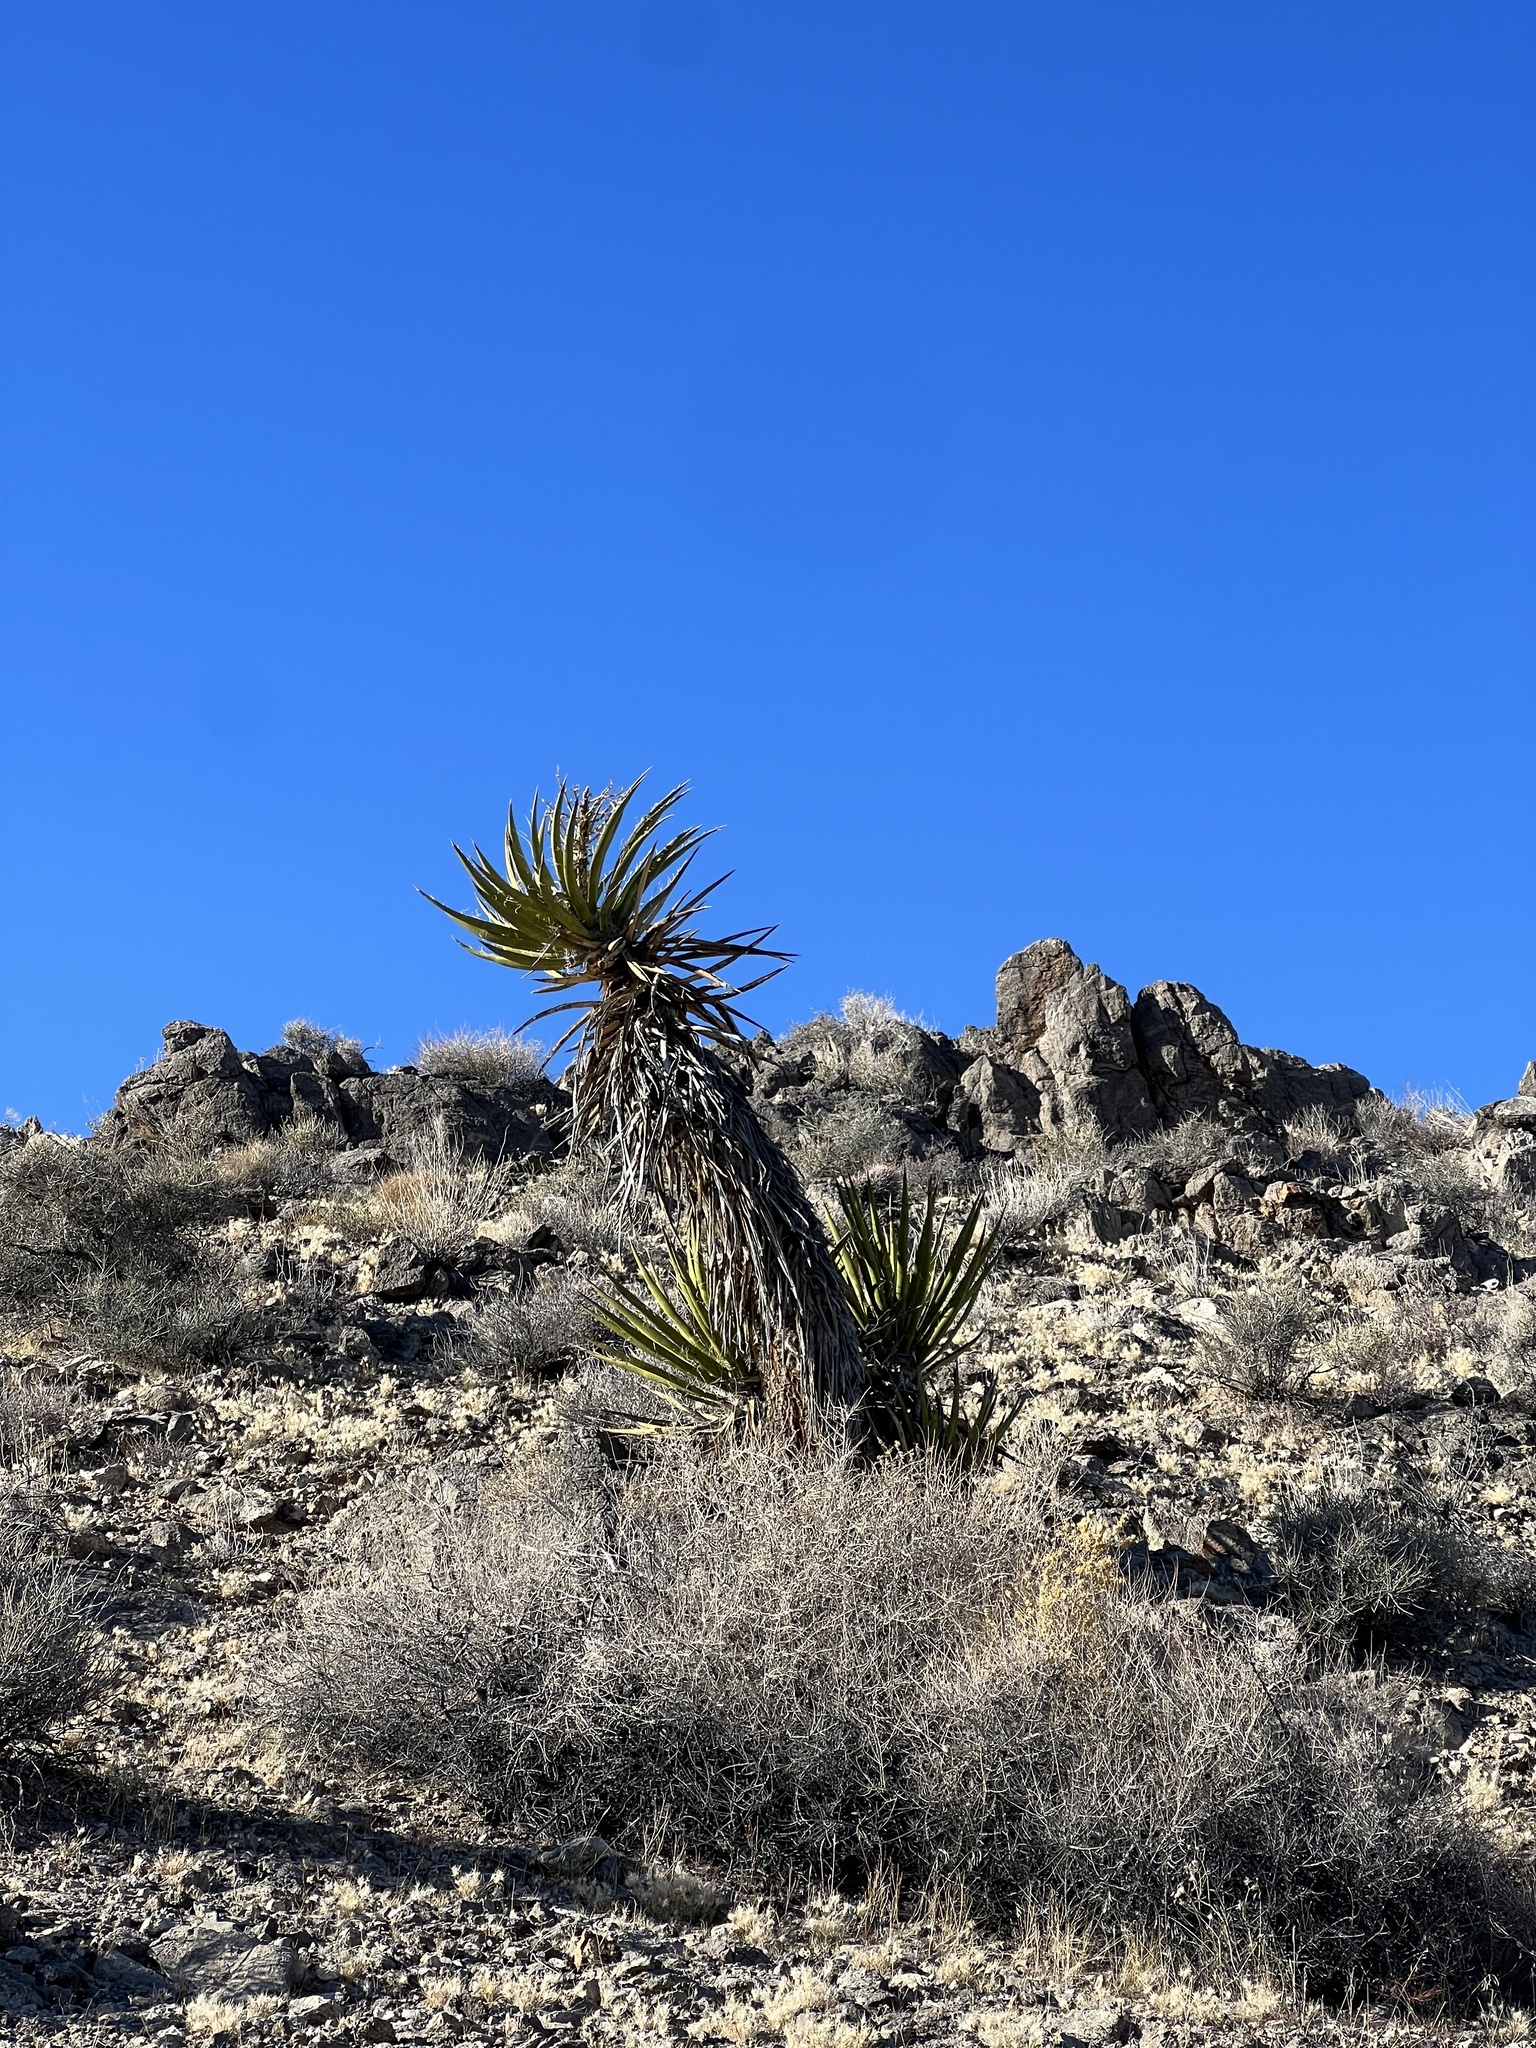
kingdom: Plantae
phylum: Tracheophyta
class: Liliopsida
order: Asparagales
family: Asparagaceae
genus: Yucca
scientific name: Yucca schidigera
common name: Mojave yucca
